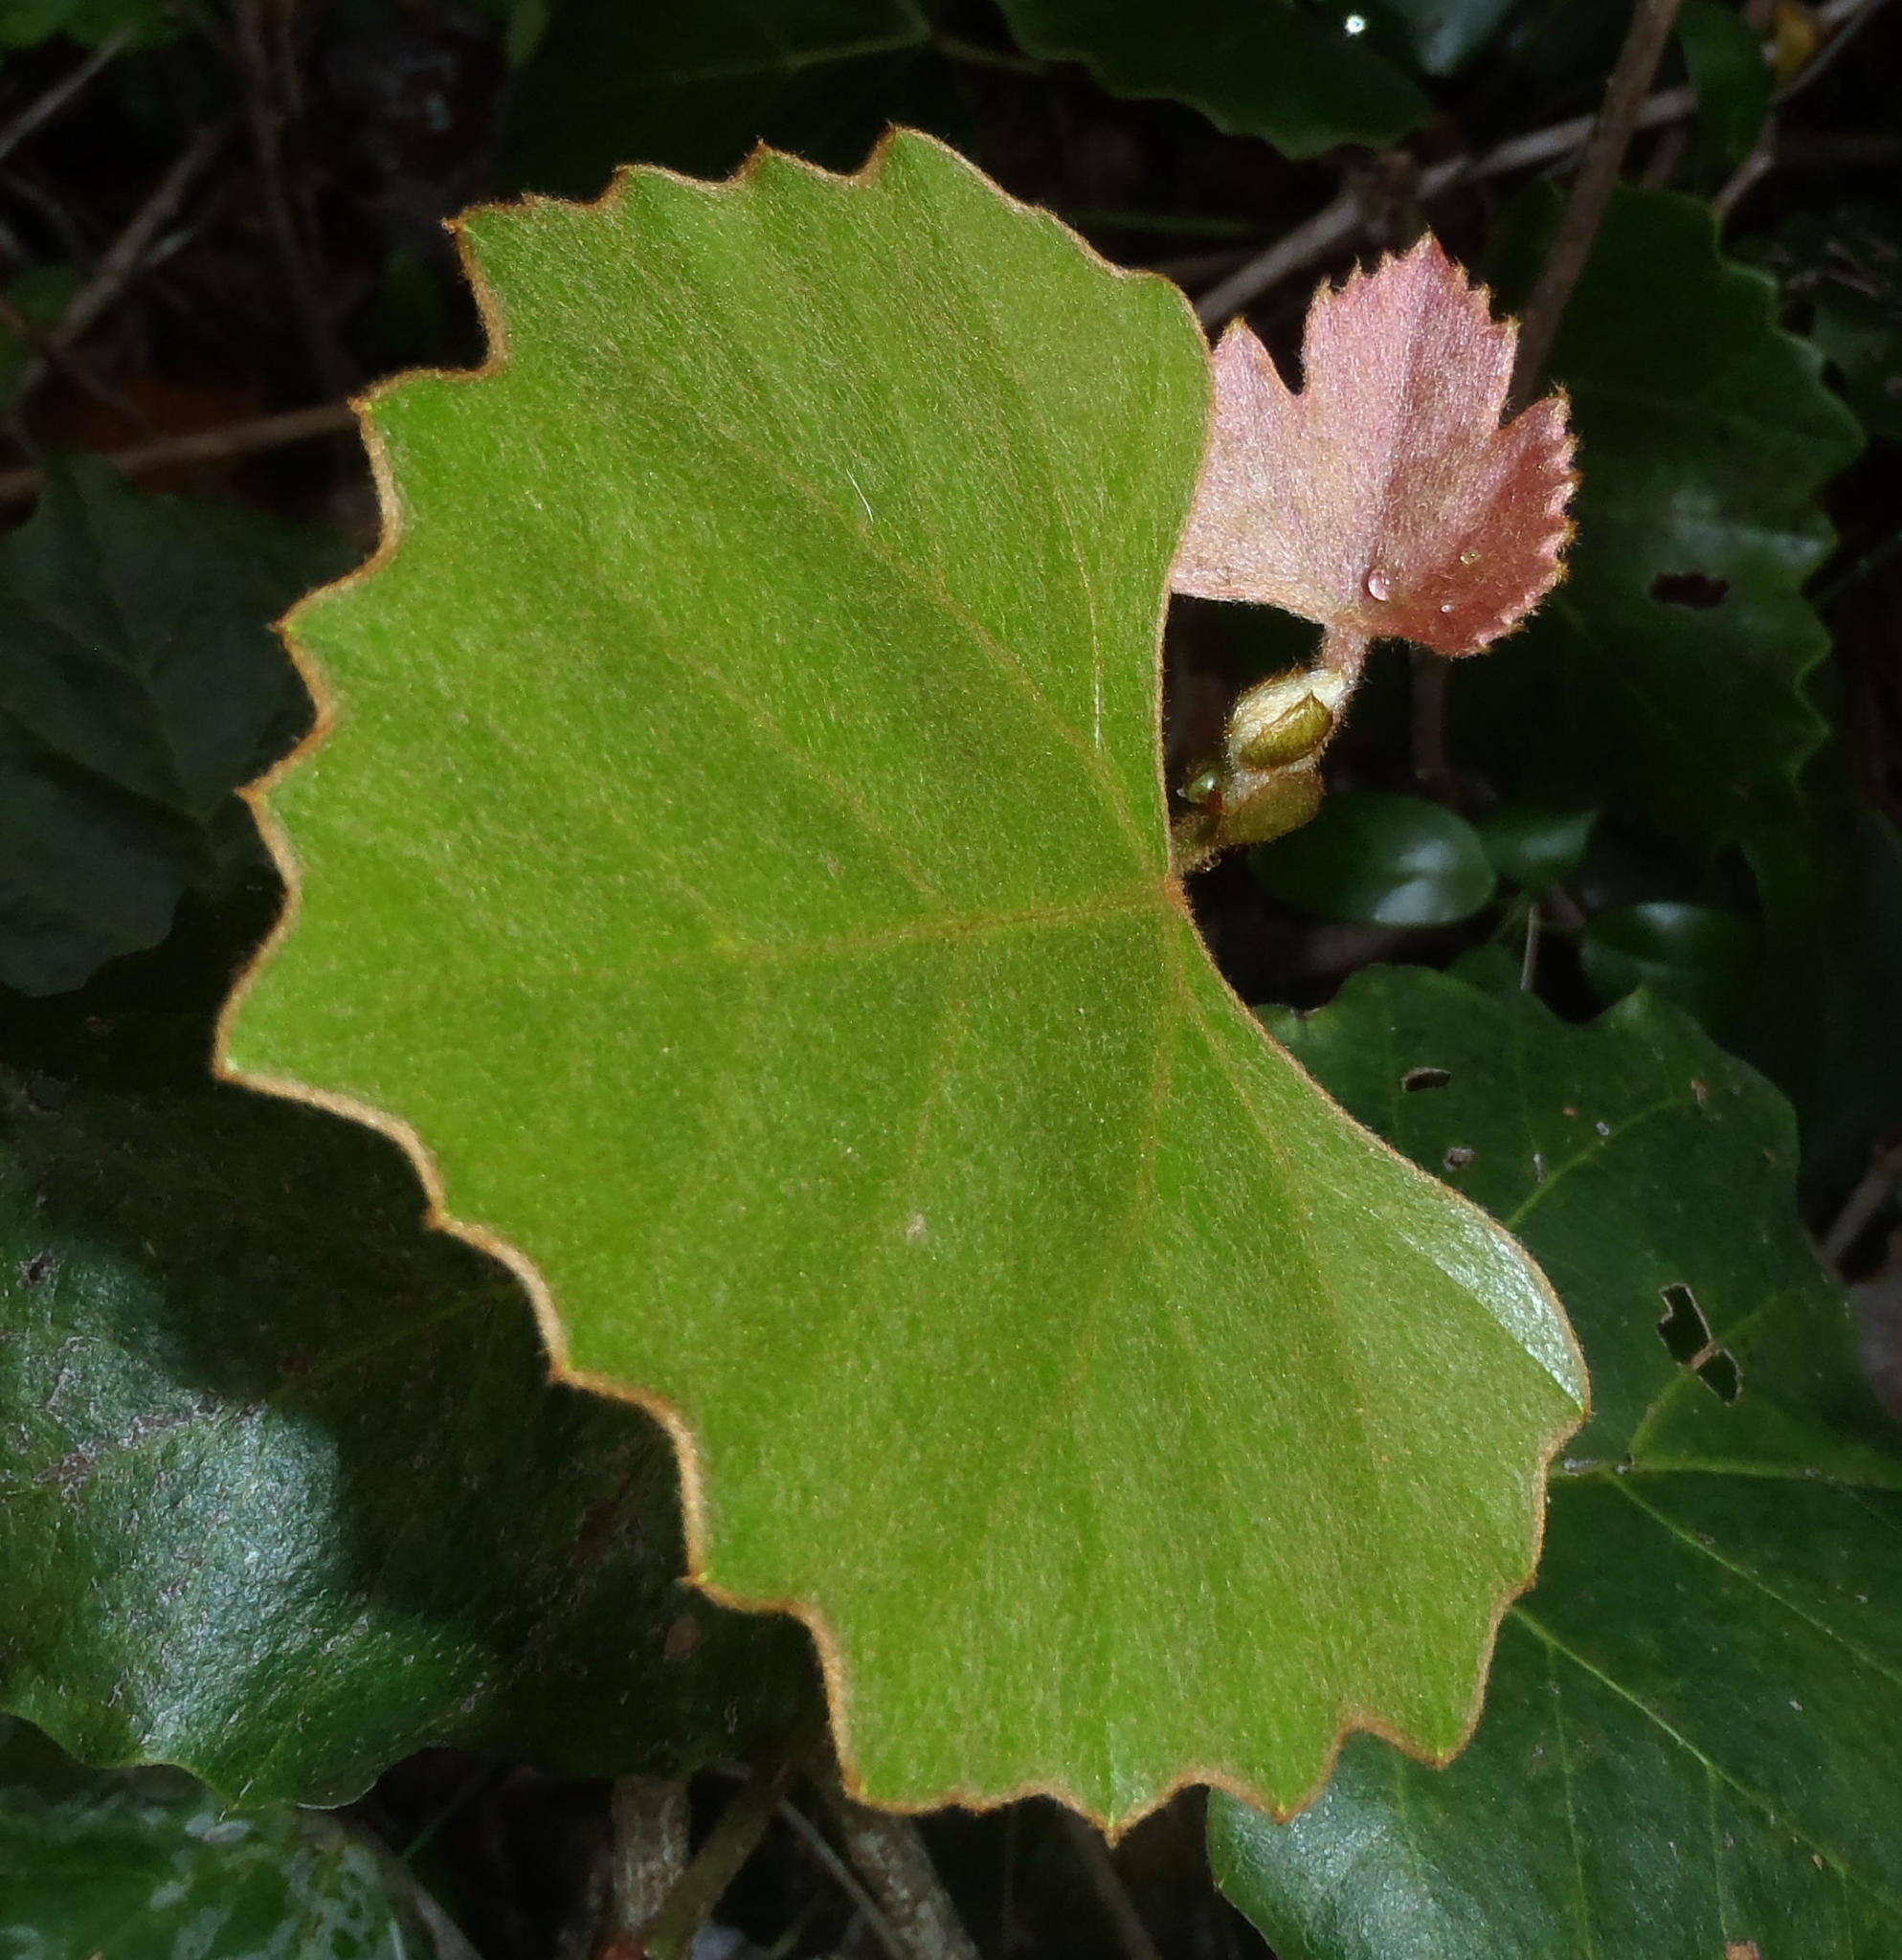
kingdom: Plantae
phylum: Tracheophyta
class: Magnoliopsida
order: Vitales
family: Vitaceae
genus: Rhoicissus
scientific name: Rhoicissus tomentosa
